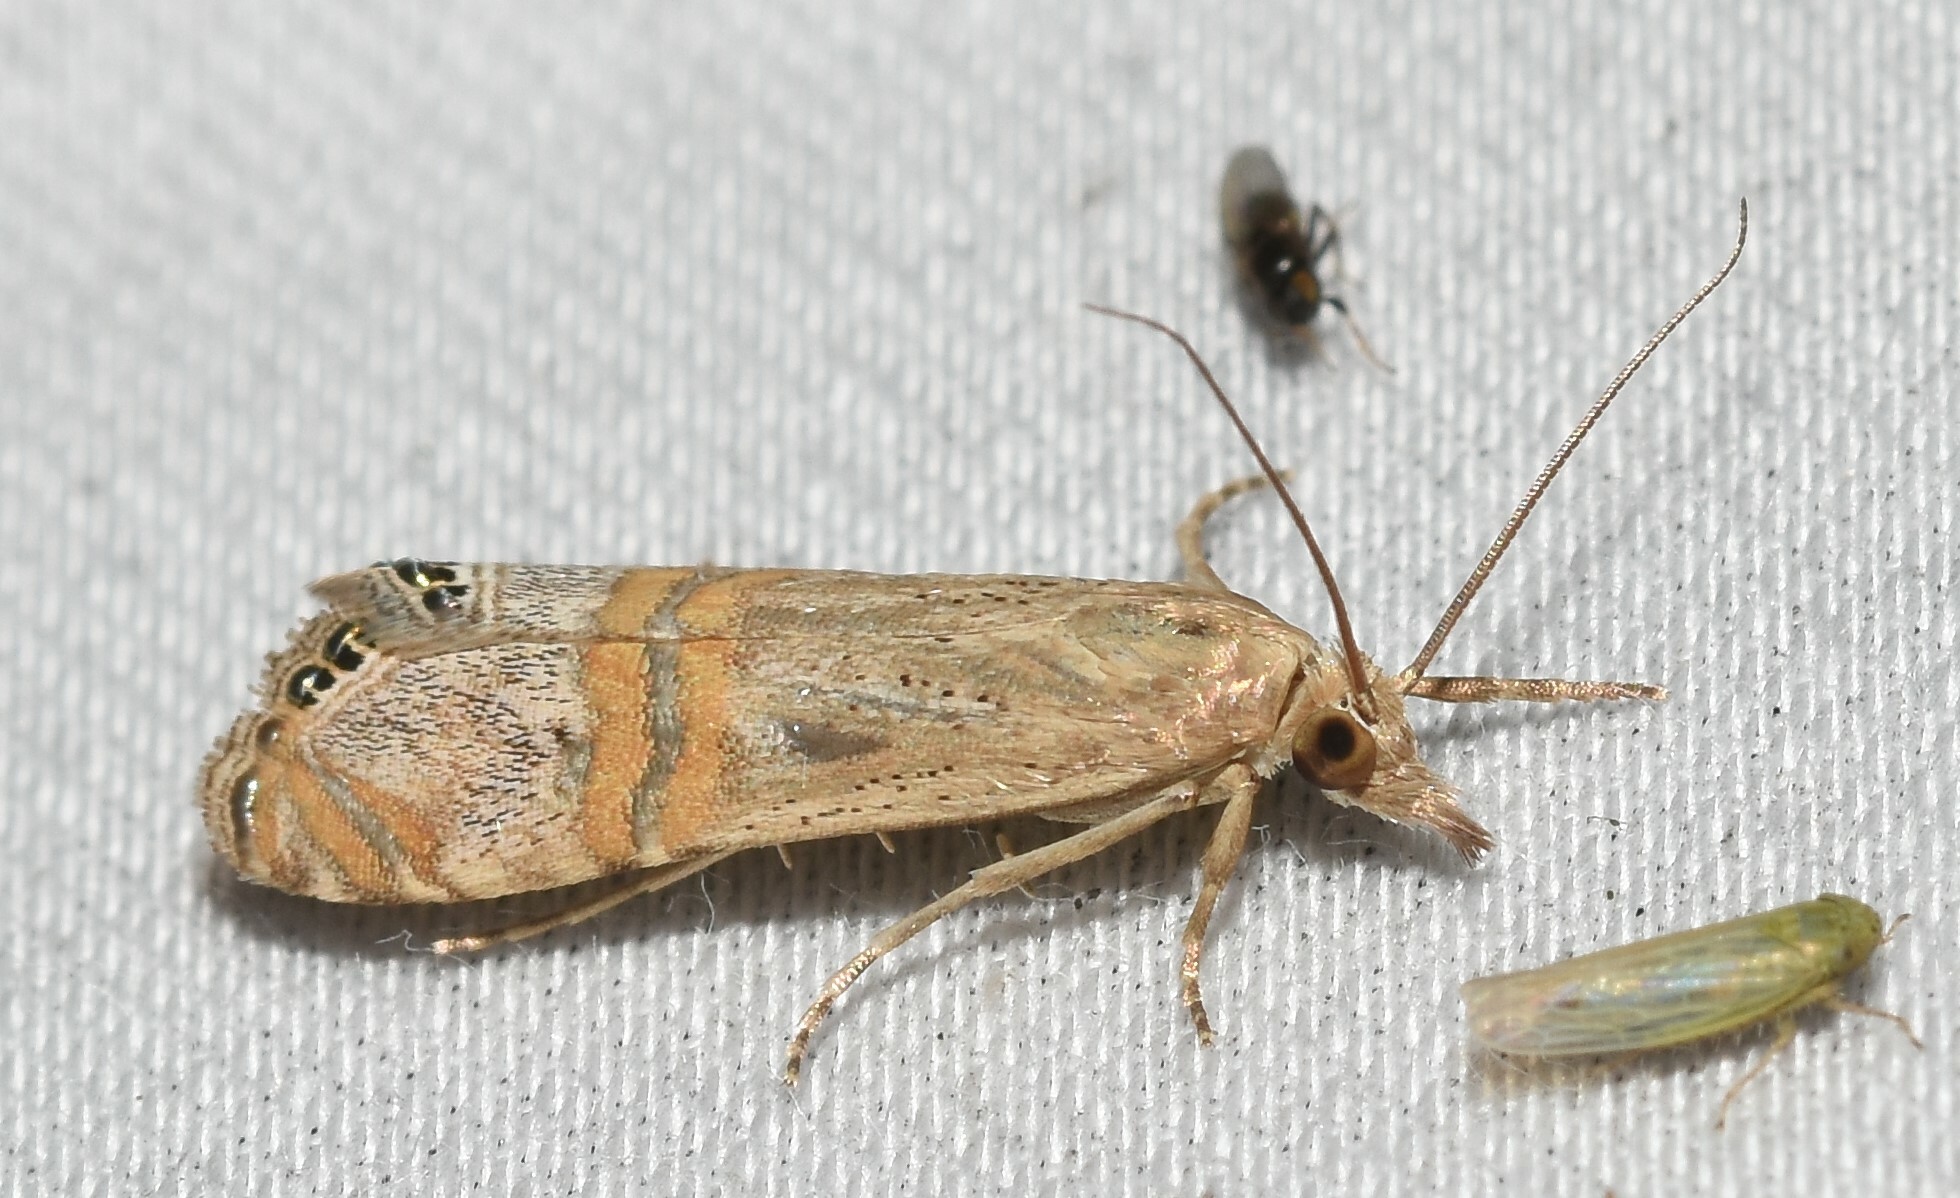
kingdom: Animalia
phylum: Arthropoda
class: Insecta
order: Lepidoptera
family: Crambidae
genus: Euchromius
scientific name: Euchromius ocellea
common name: Necklace veneer moth
